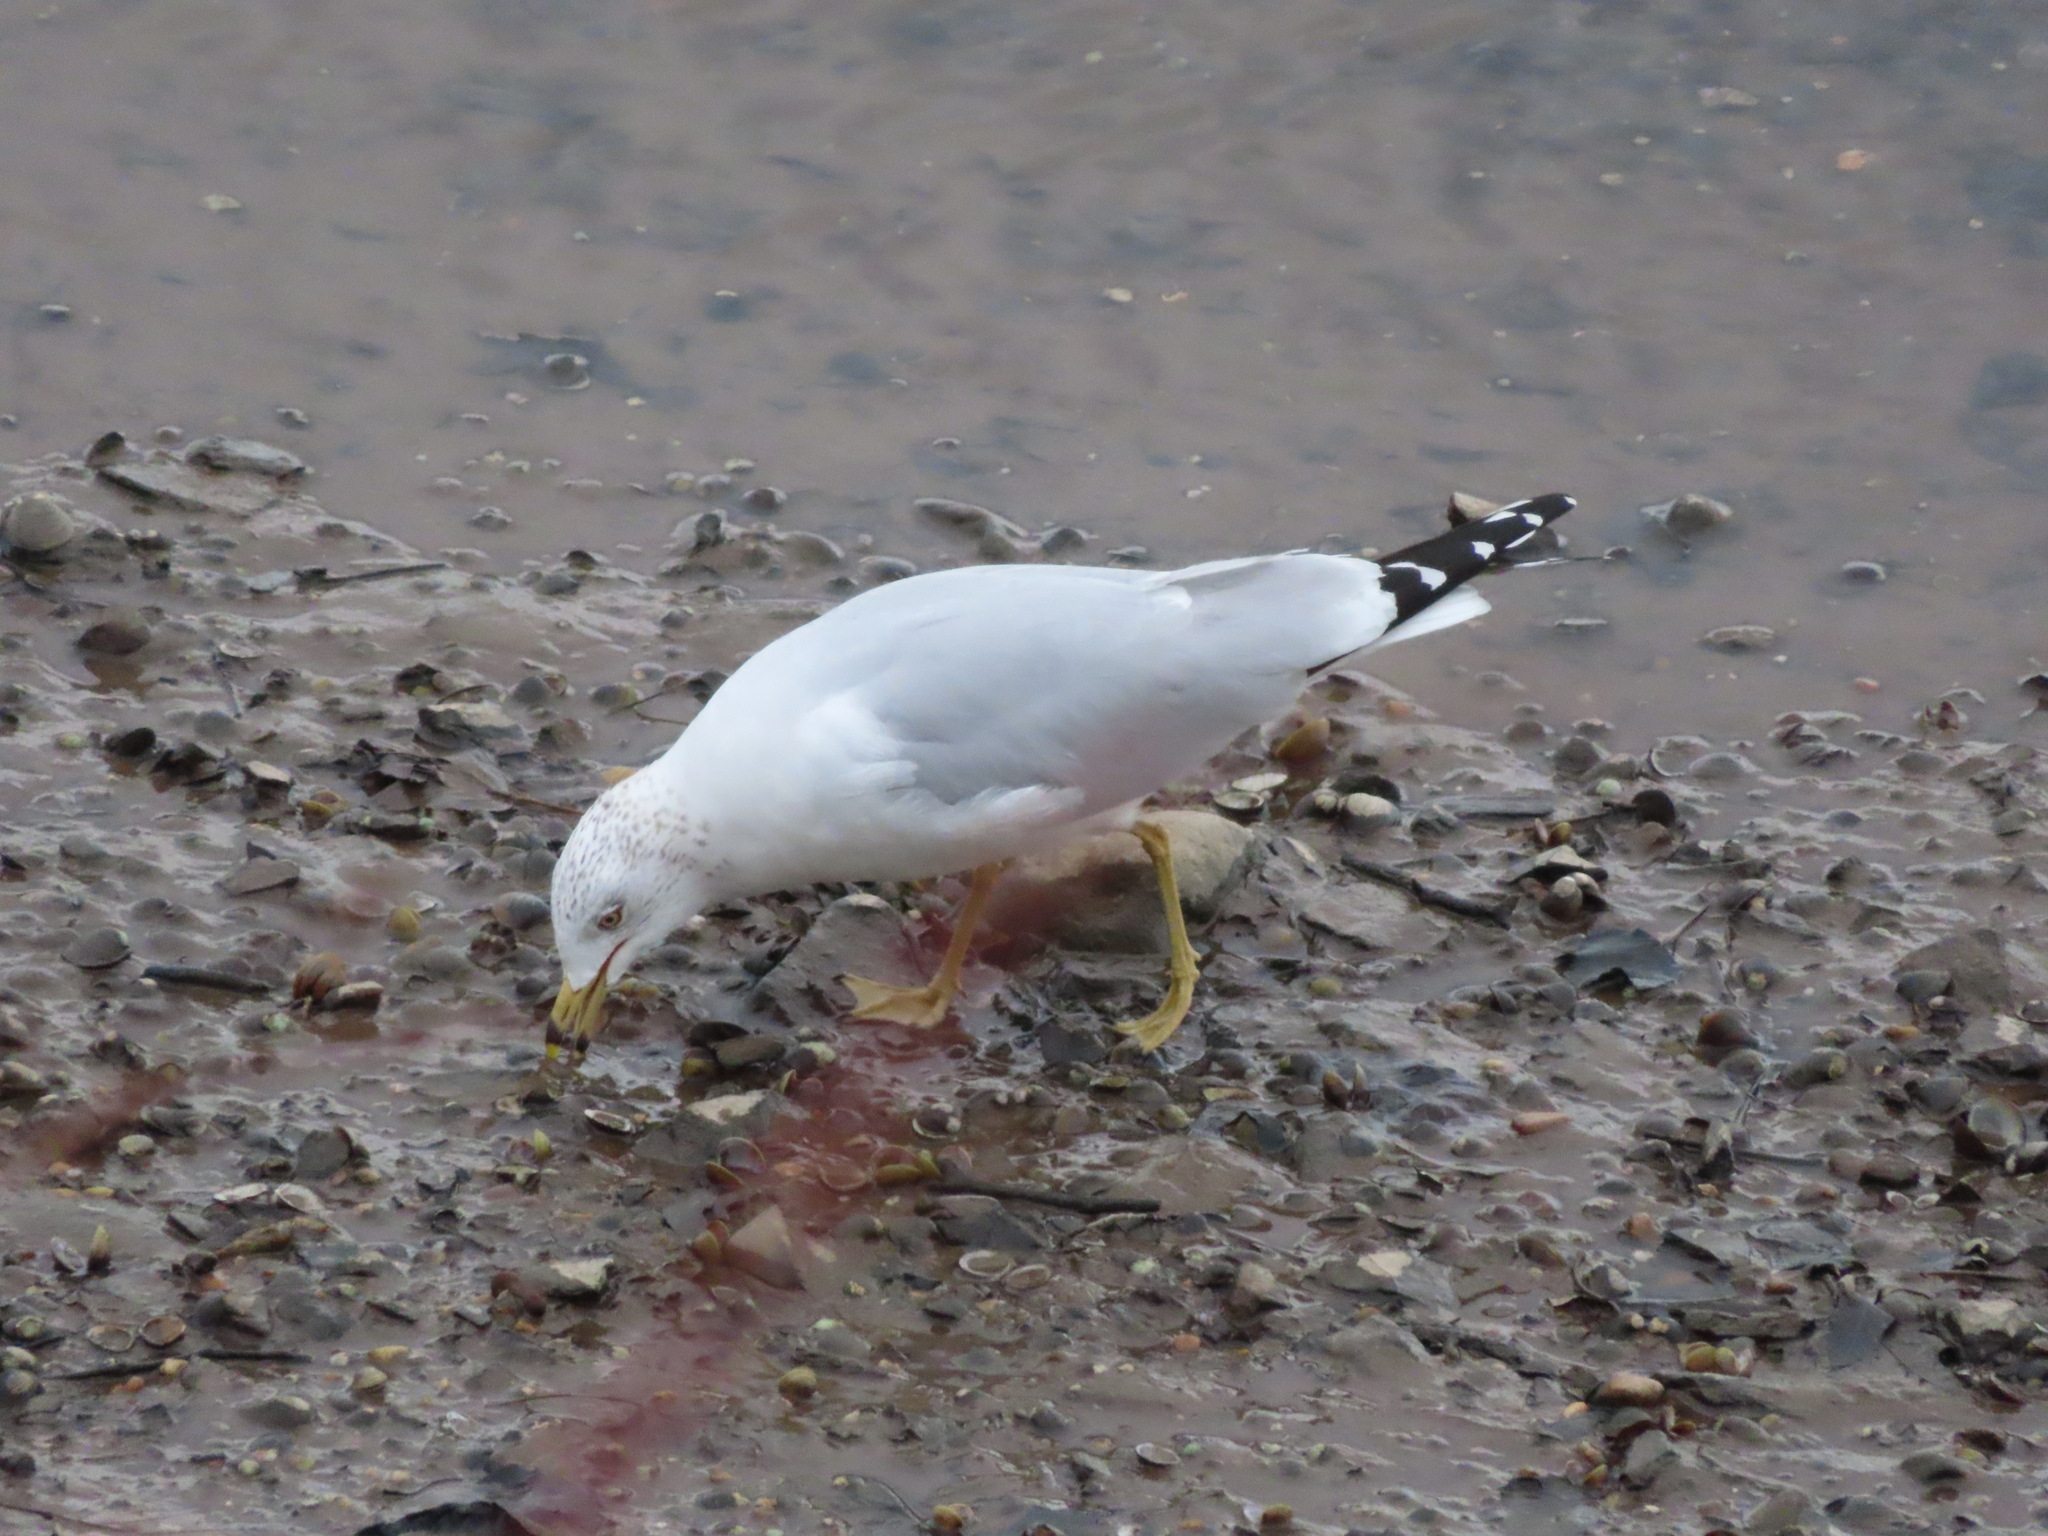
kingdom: Animalia
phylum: Chordata
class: Aves
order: Charadriiformes
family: Laridae
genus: Larus
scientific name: Larus delawarensis
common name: Ring-billed gull
